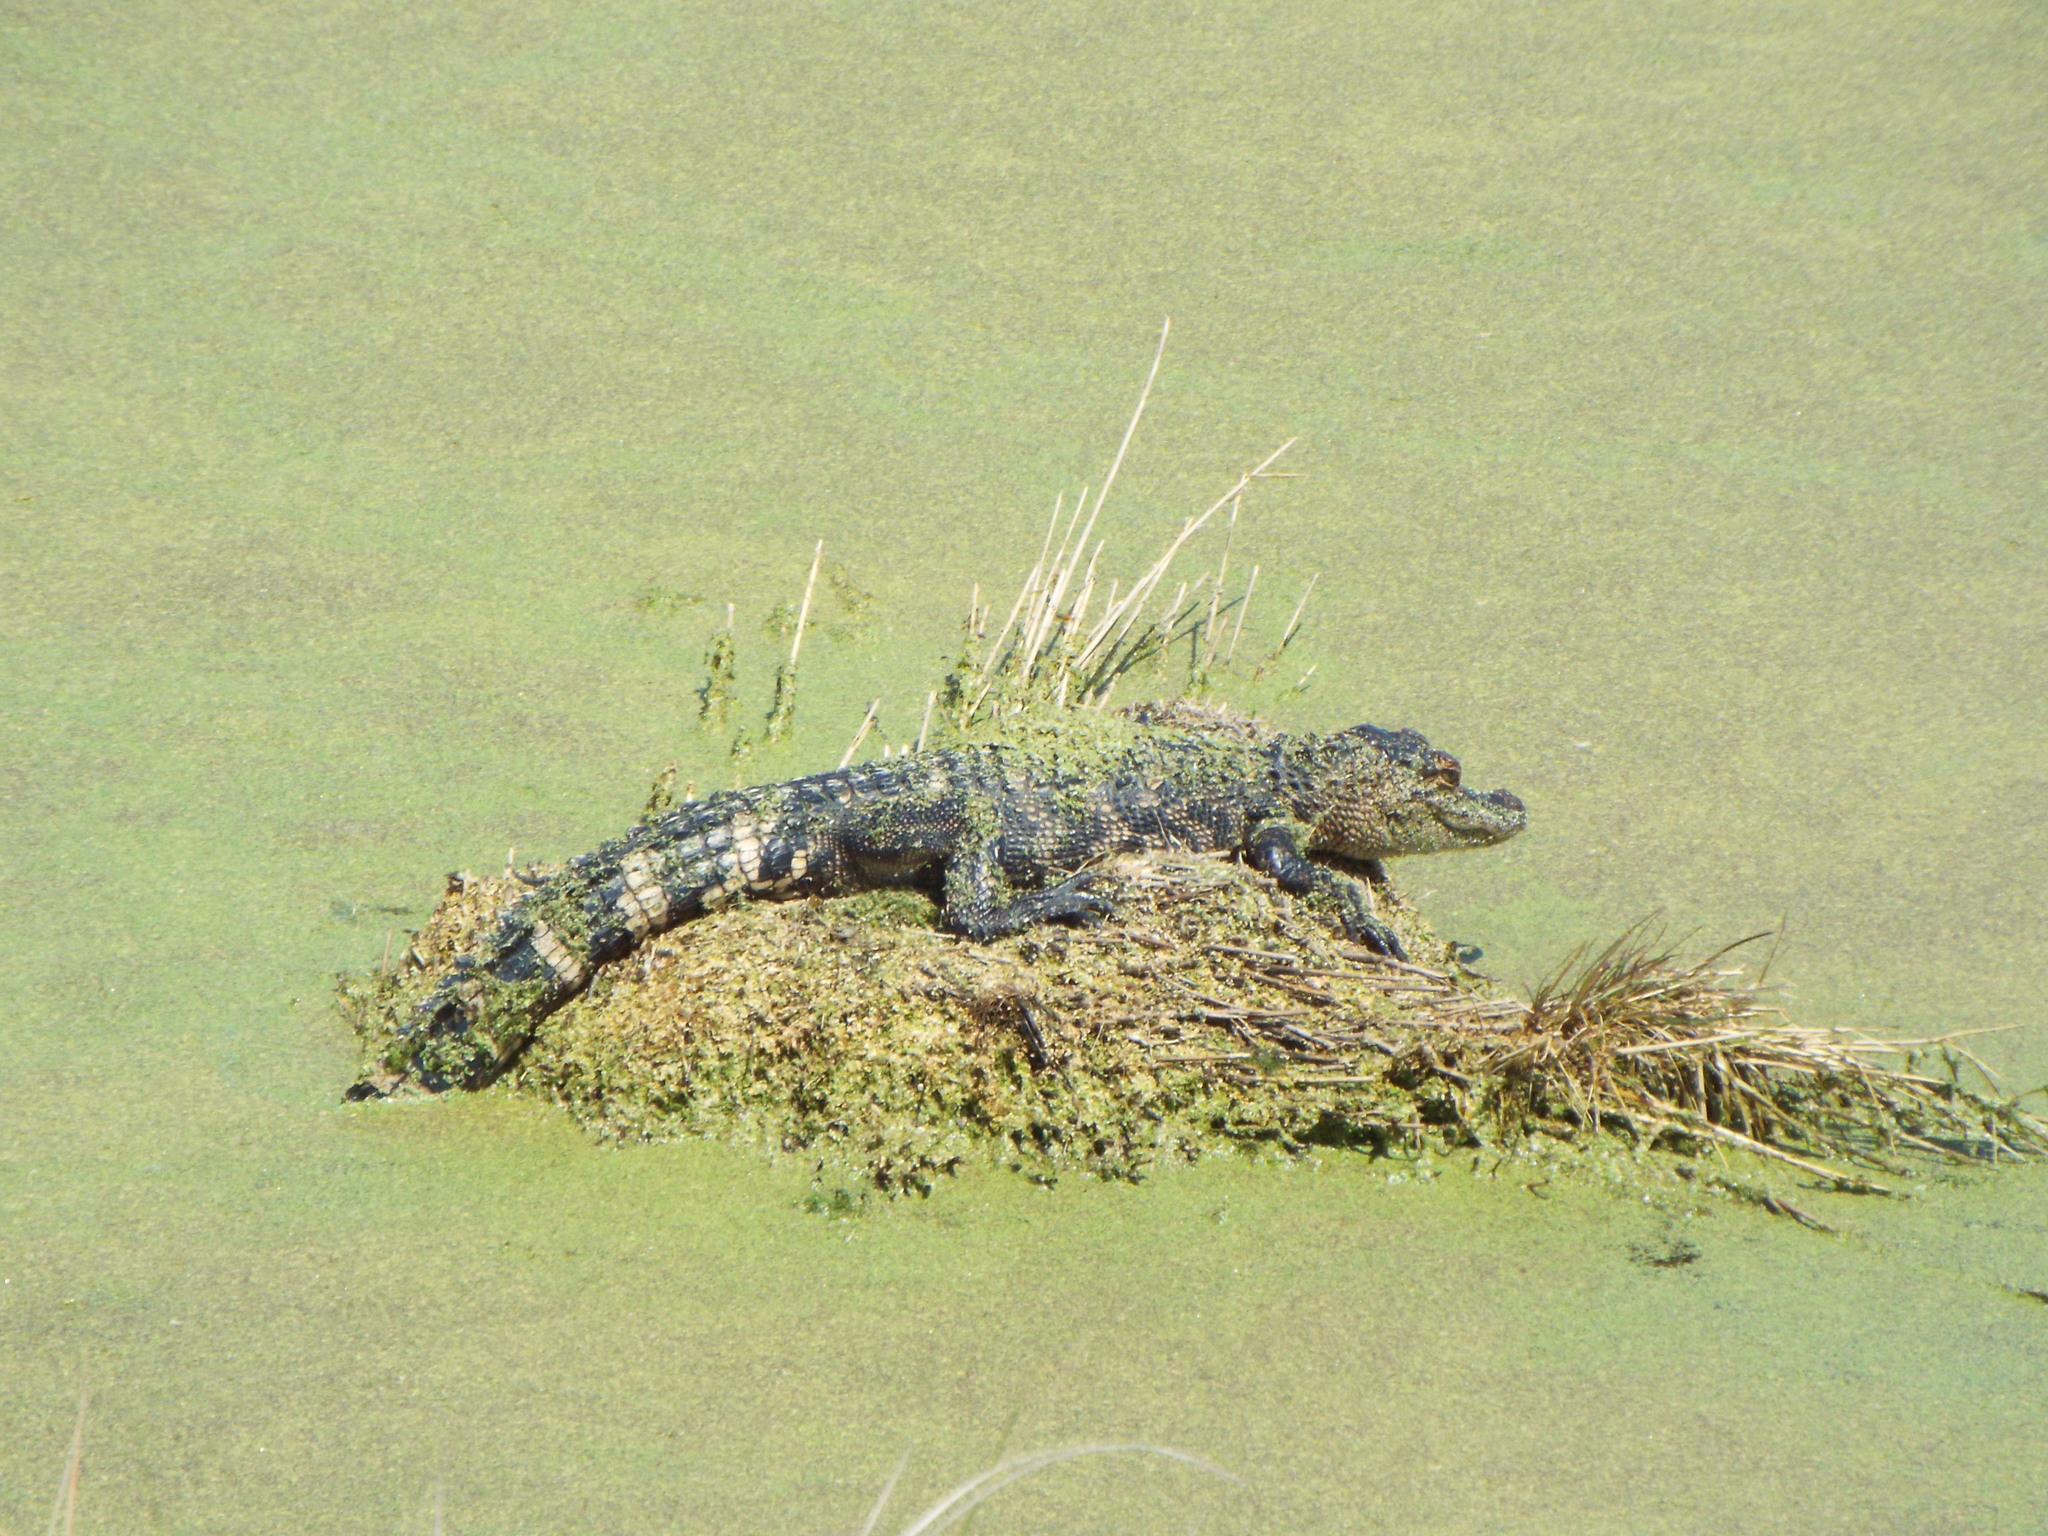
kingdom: Animalia
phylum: Chordata
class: Crocodylia
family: Alligatoridae
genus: Alligator
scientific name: Alligator mississippiensis
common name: American alligator
